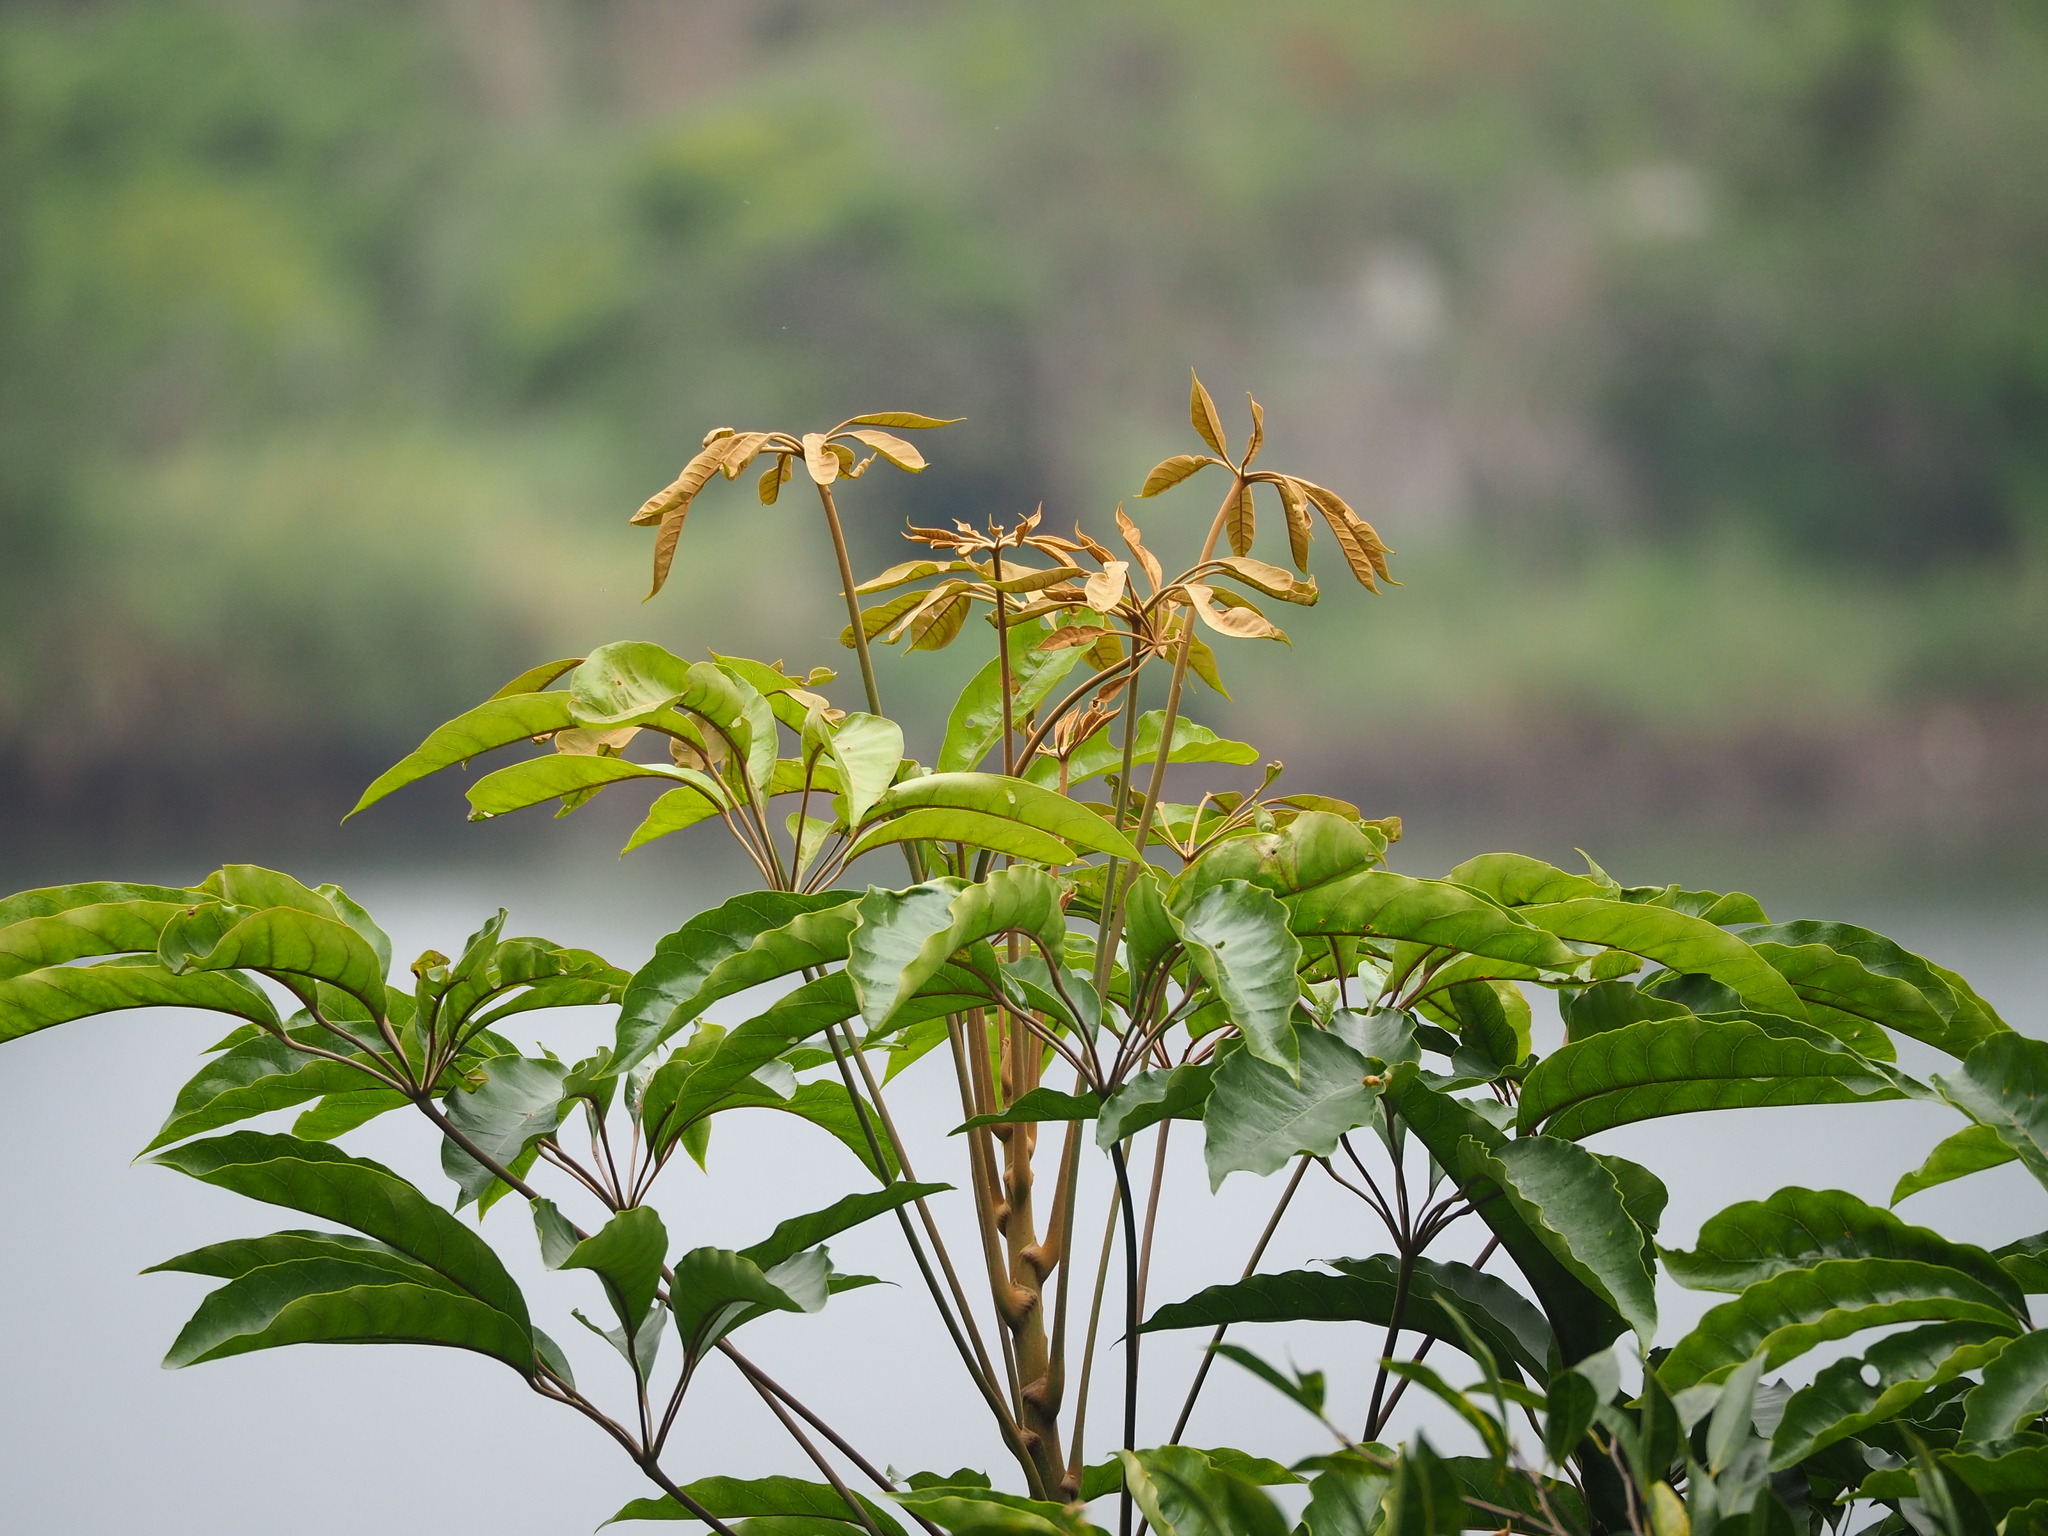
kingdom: Plantae
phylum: Tracheophyta
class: Magnoliopsida
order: Apiales
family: Araliaceae
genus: Heptapleurum
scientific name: Heptapleurum heptaphyllum
